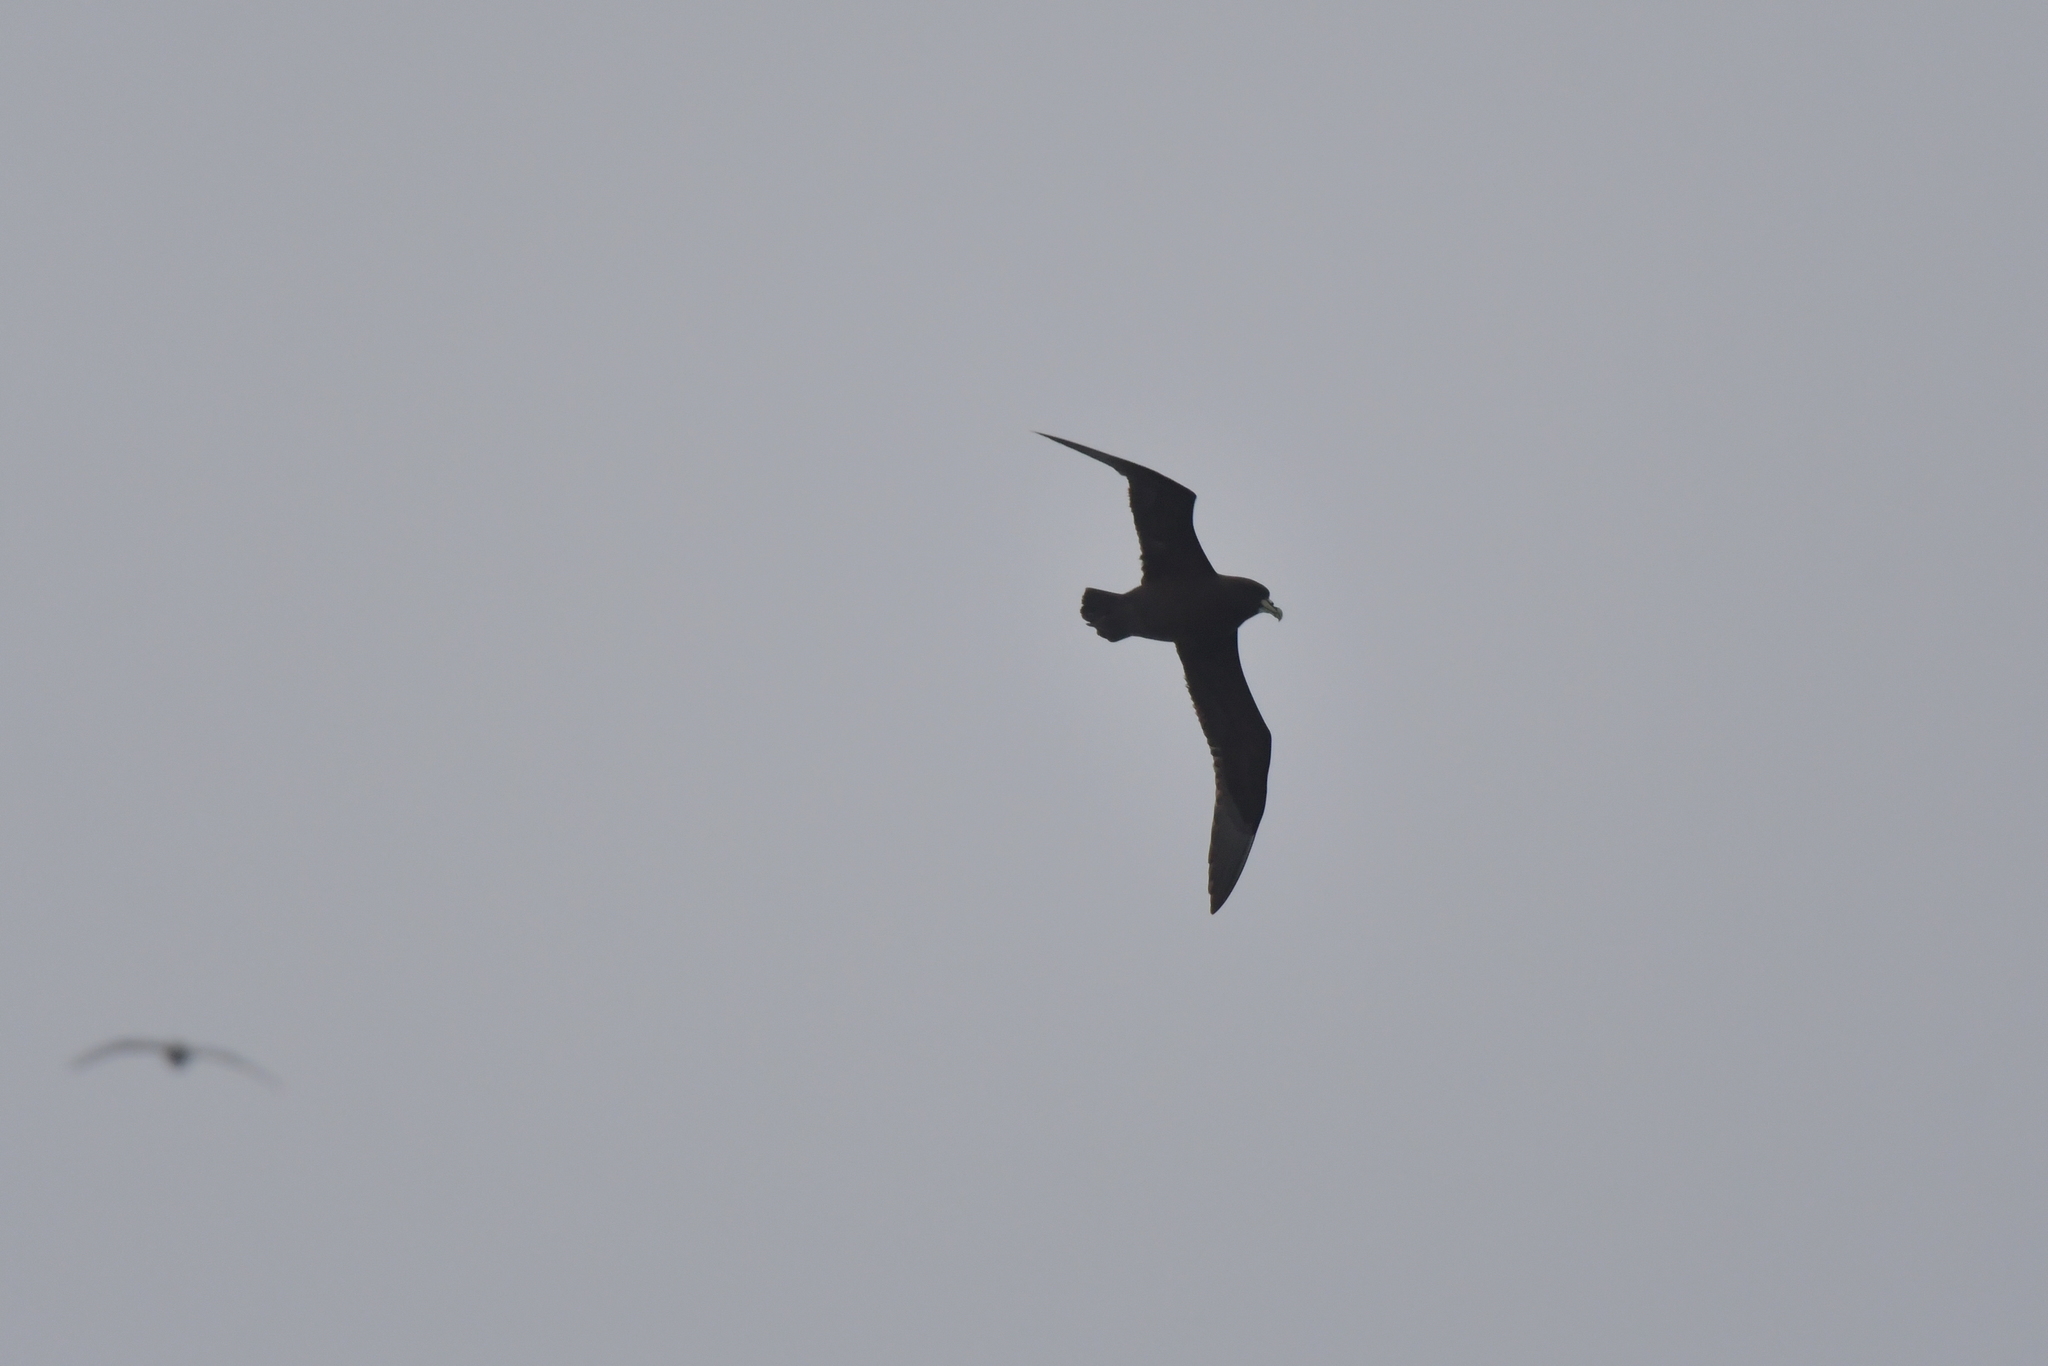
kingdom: Animalia
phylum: Chordata
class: Aves
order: Procellariiformes
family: Procellariidae
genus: Procellaria
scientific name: Procellaria aequinoctialis
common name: White-chinned petrel
